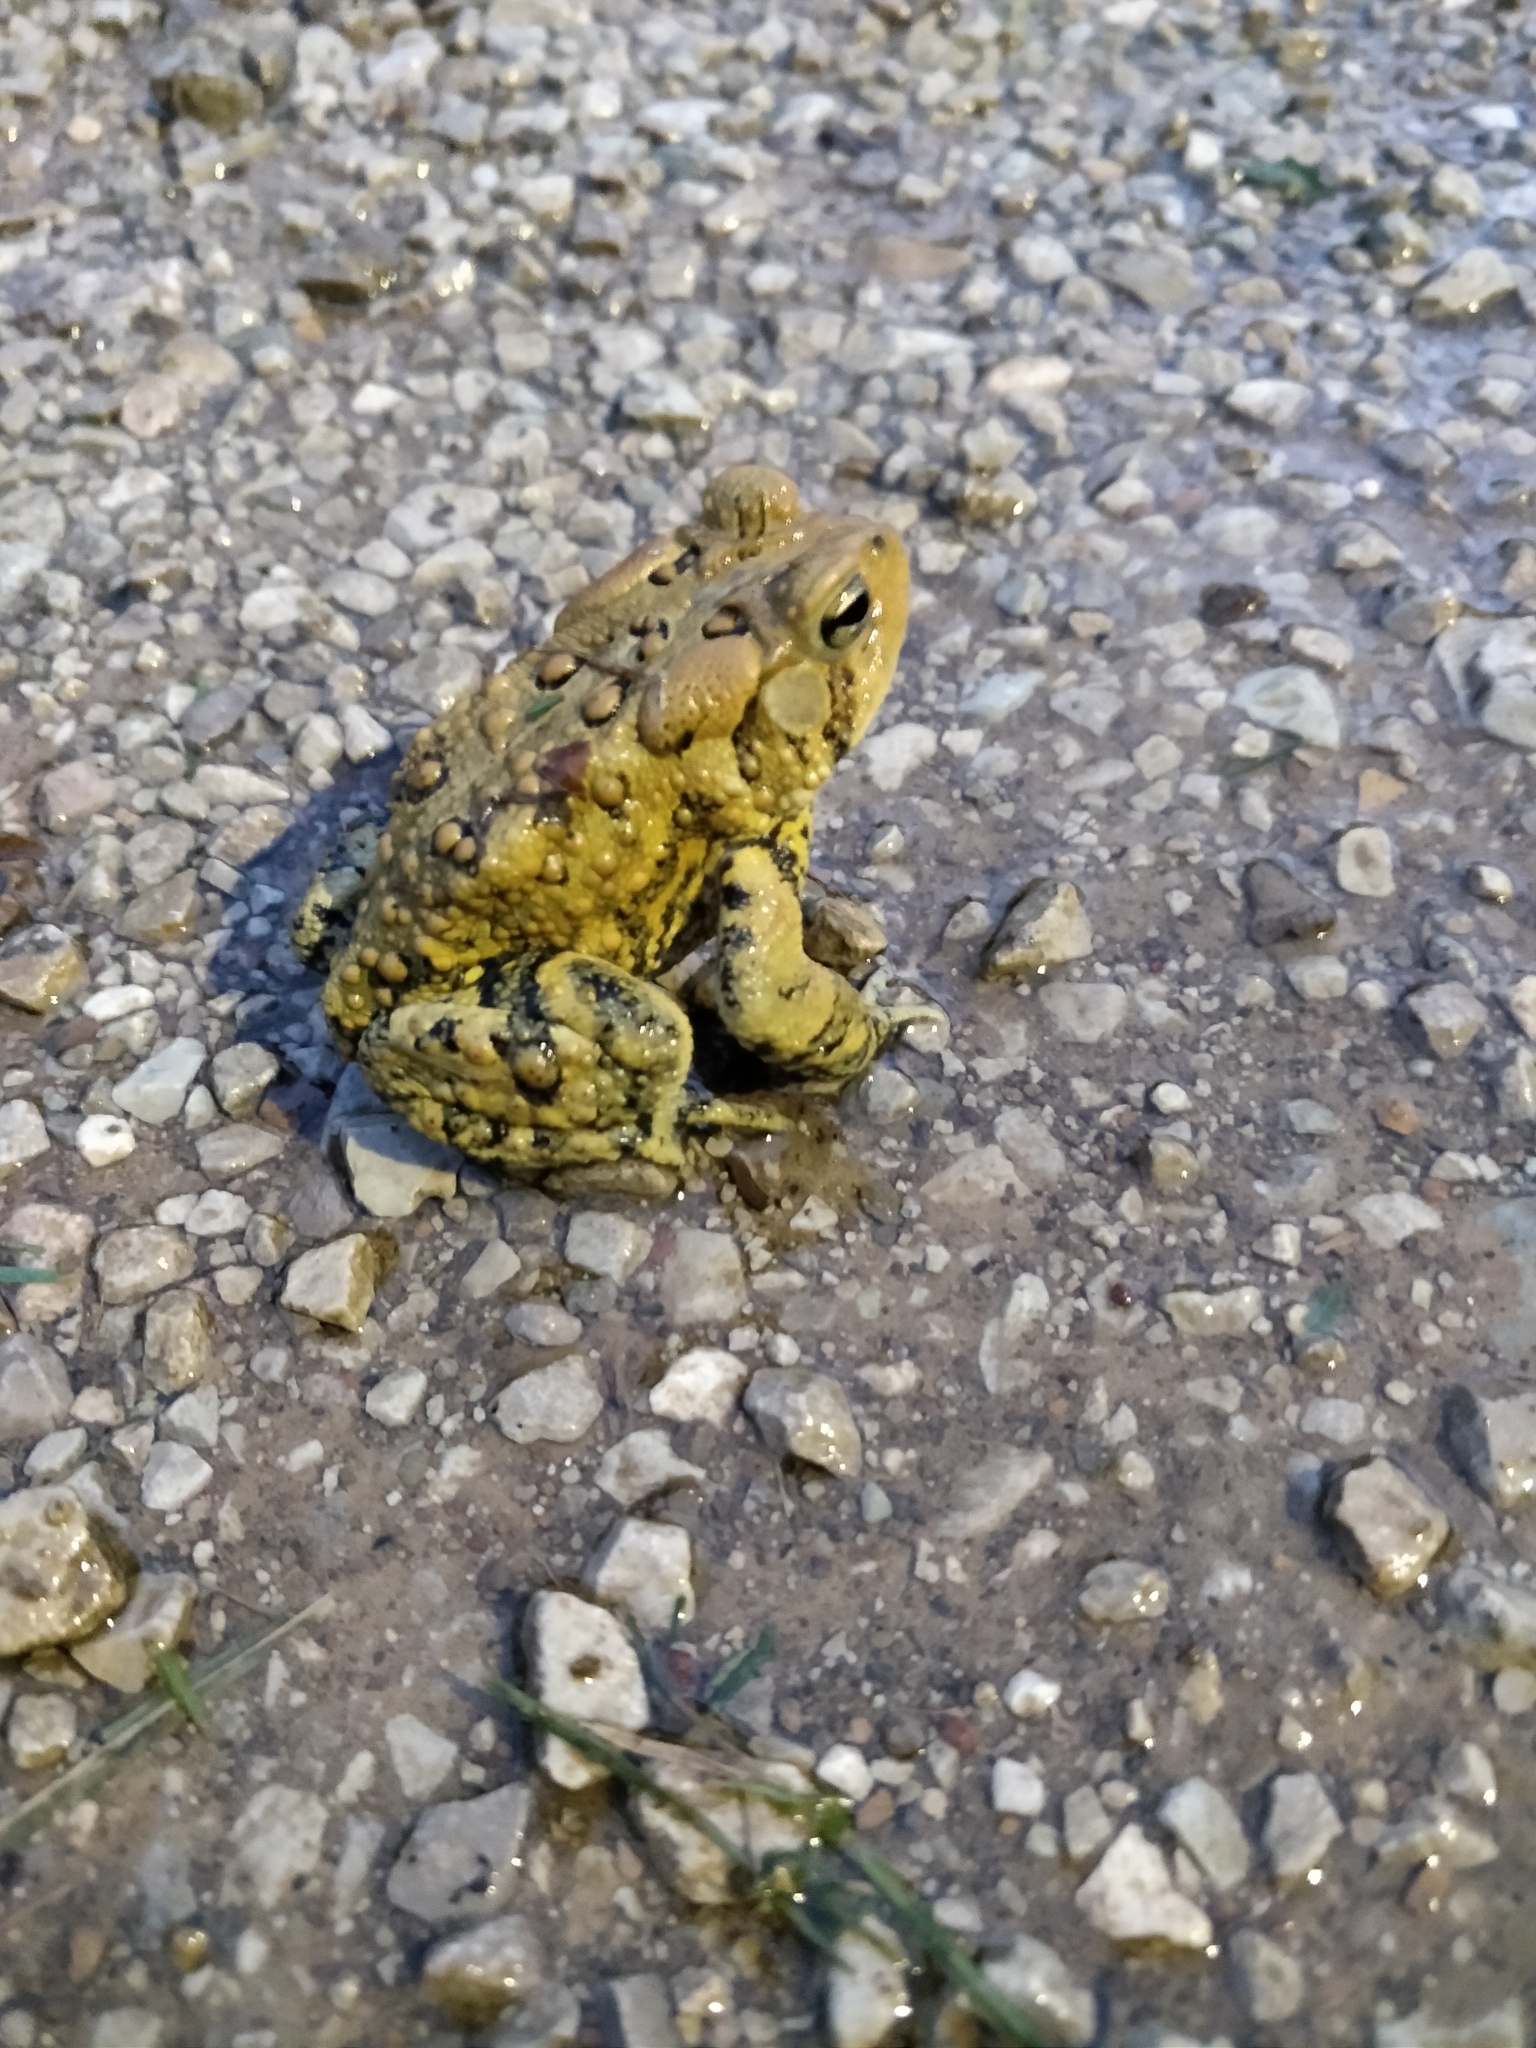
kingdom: Animalia
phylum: Chordata
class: Amphibia
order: Anura
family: Bufonidae
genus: Anaxyrus
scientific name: Anaxyrus americanus
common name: American toad
